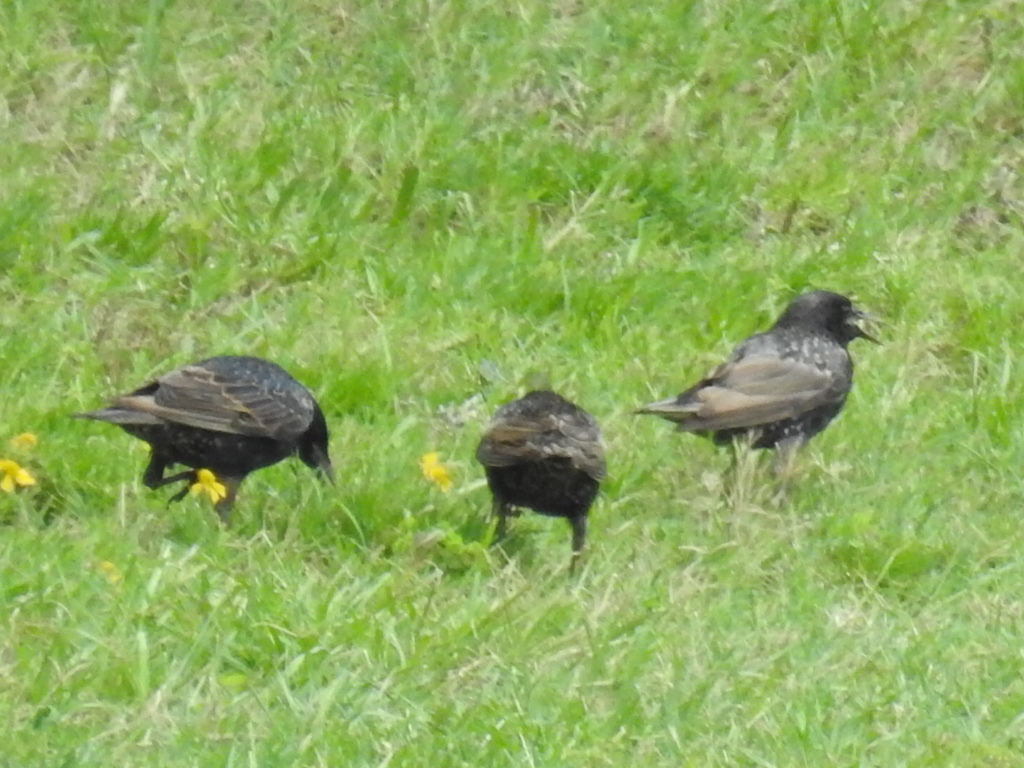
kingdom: Animalia
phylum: Chordata
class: Aves
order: Passeriformes
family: Sturnidae
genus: Sturnus
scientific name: Sturnus vulgaris
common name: Common starling
